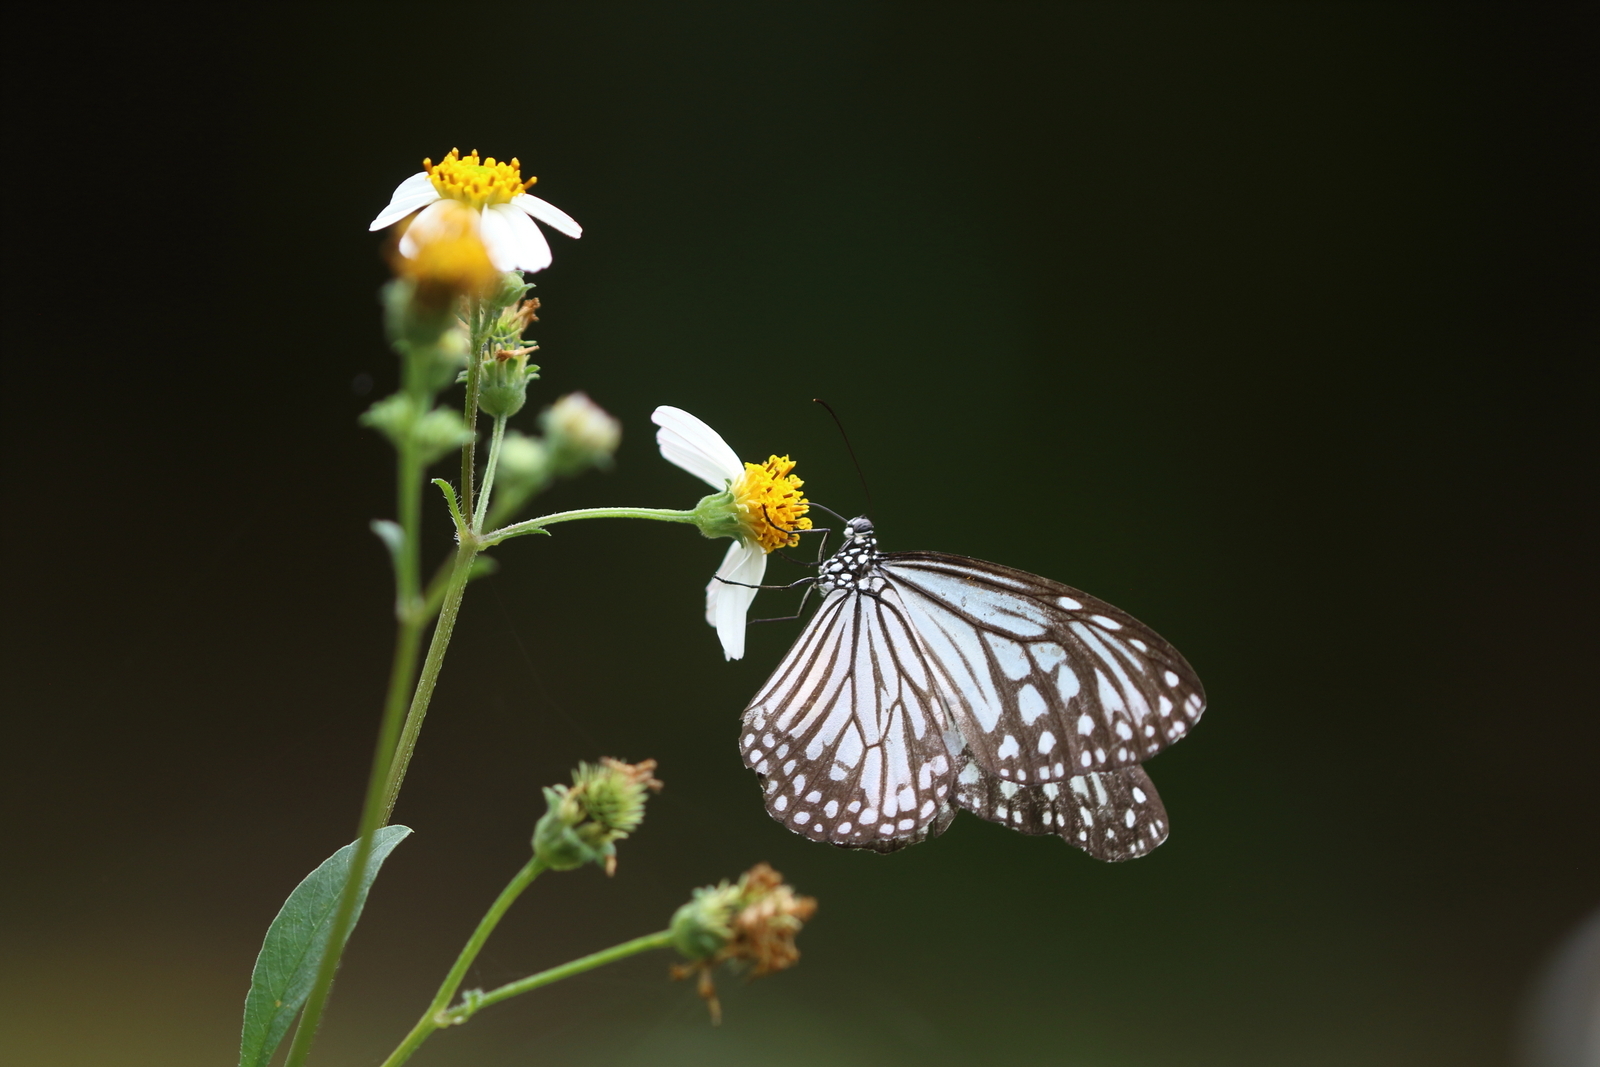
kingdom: Animalia
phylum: Arthropoda
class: Insecta
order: Lepidoptera
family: Nymphalidae
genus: Parantica
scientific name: Parantica aglea
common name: Glassy tiger
